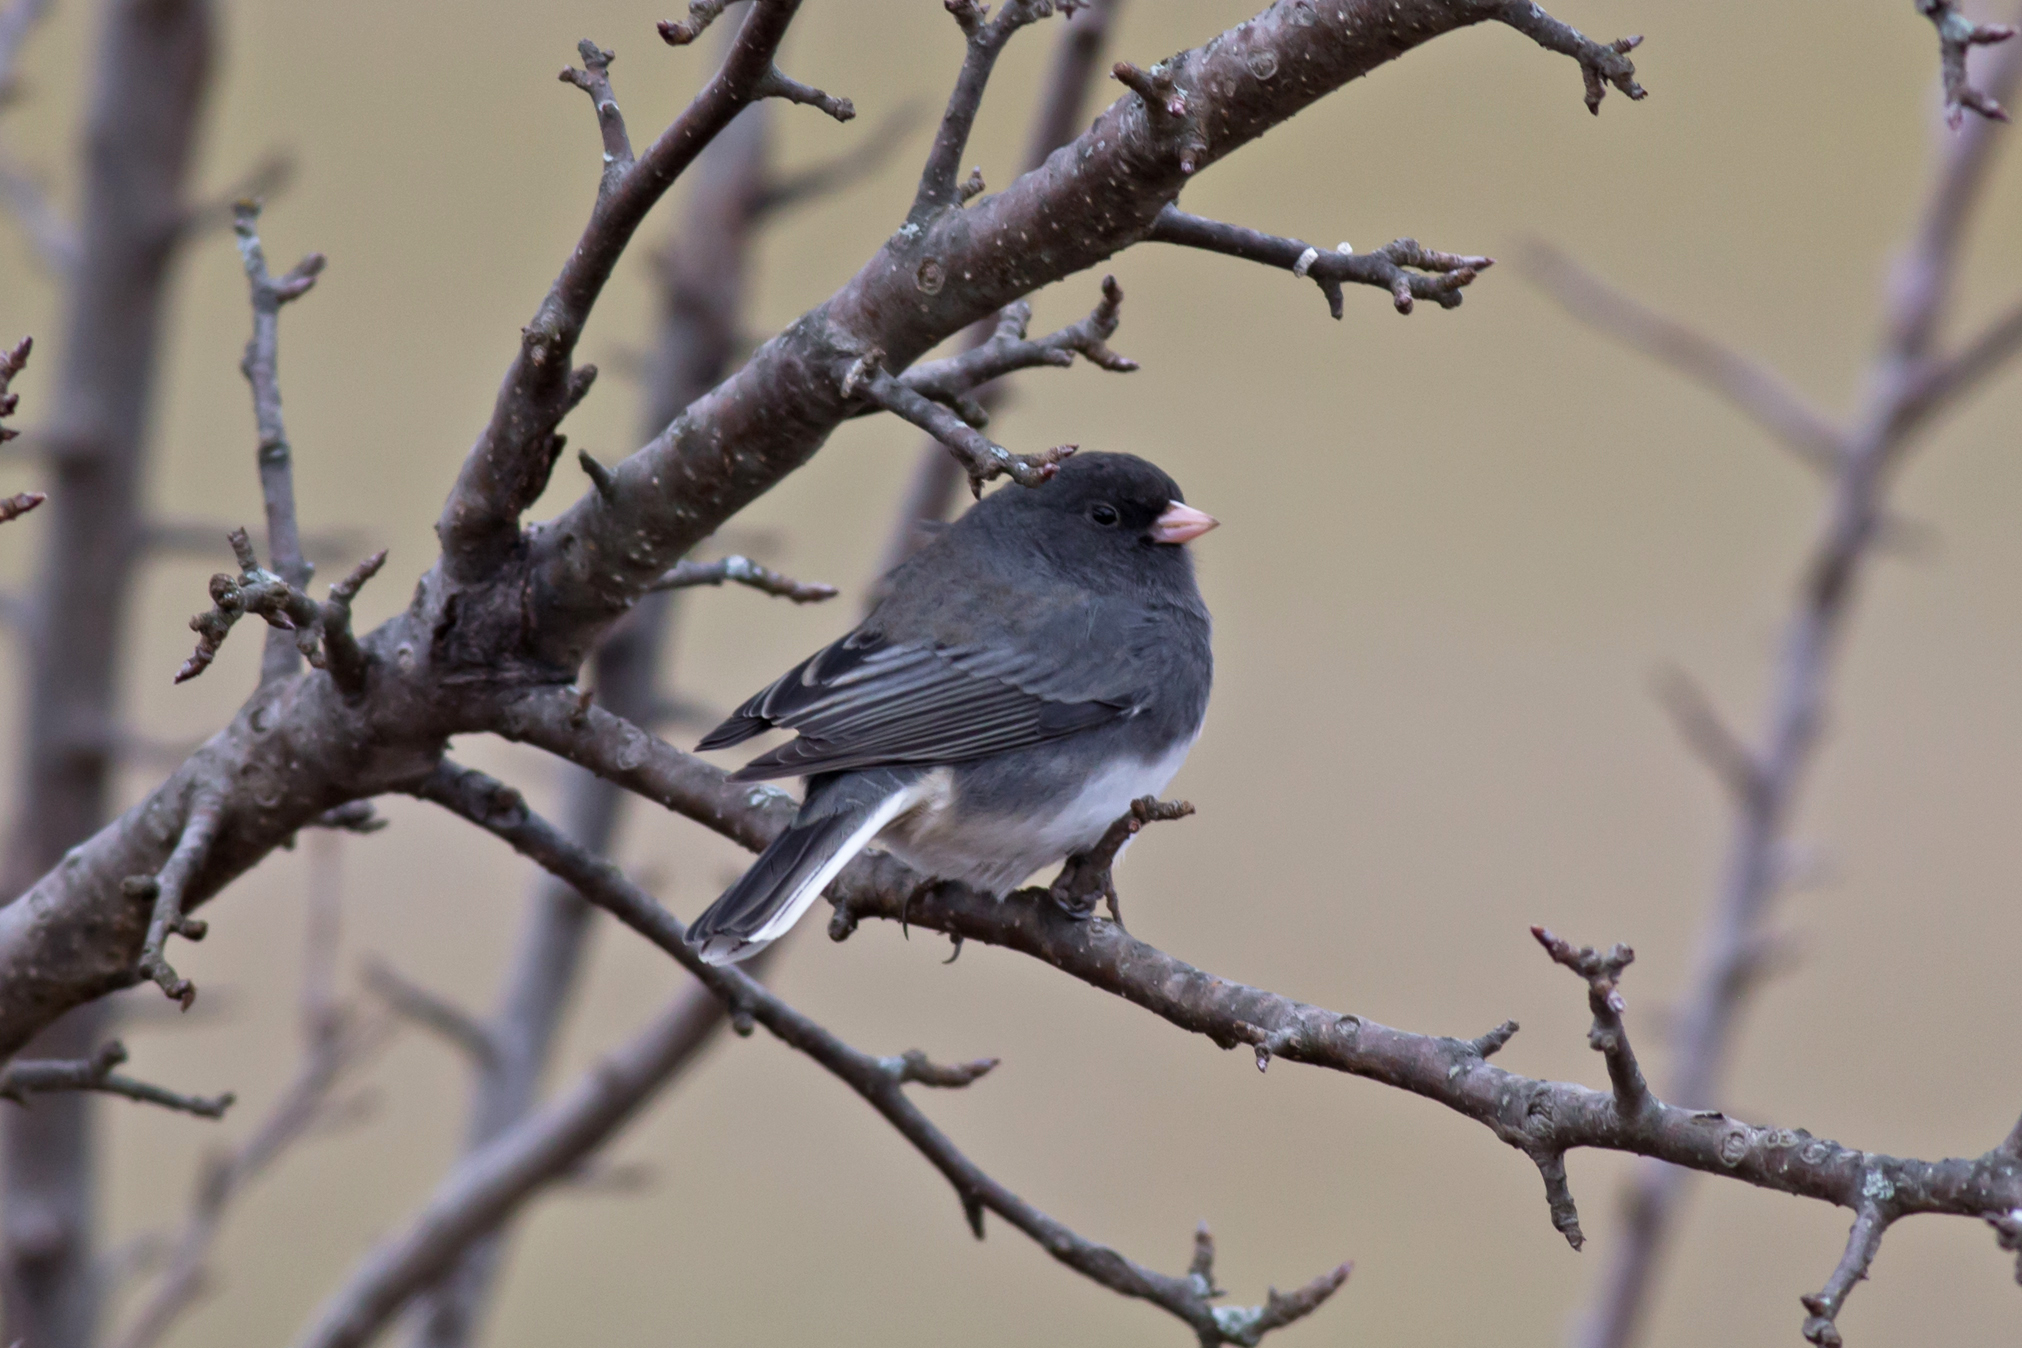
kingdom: Animalia
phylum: Chordata
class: Aves
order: Passeriformes
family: Passerellidae
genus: Junco
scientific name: Junco hyemalis
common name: Dark-eyed junco
